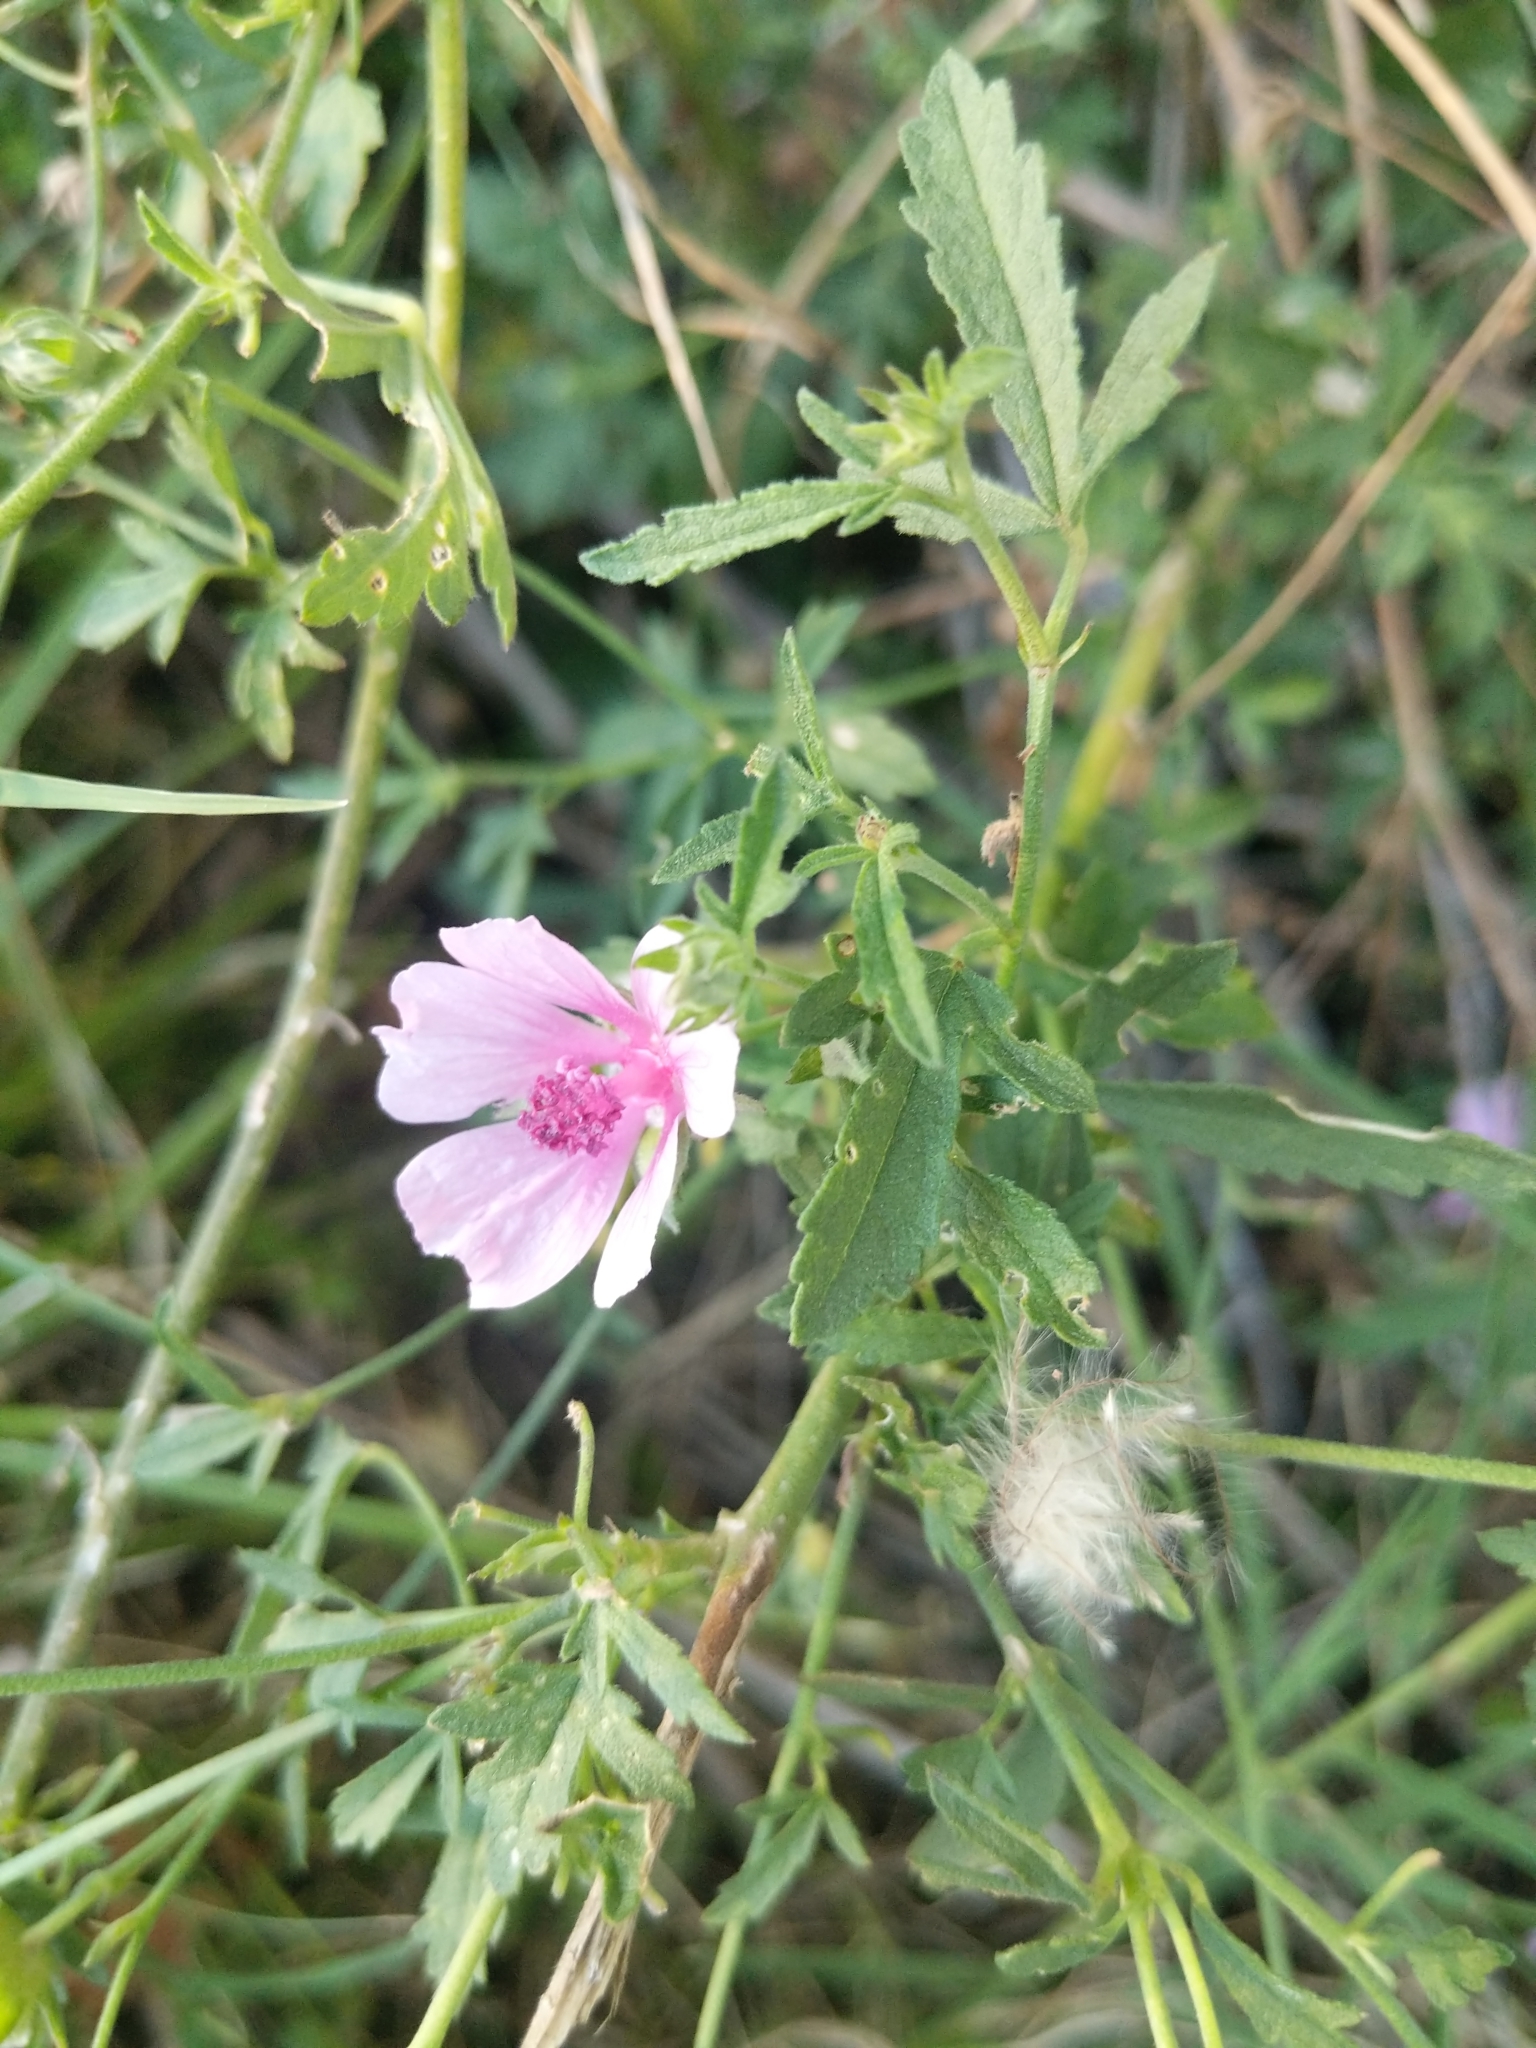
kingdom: Plantae
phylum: Tracheophyta
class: Magnoliopsida
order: Malvales
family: Malvaceae
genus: Althaea
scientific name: Althaea cannabina
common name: Palm-leaf marshmallow
